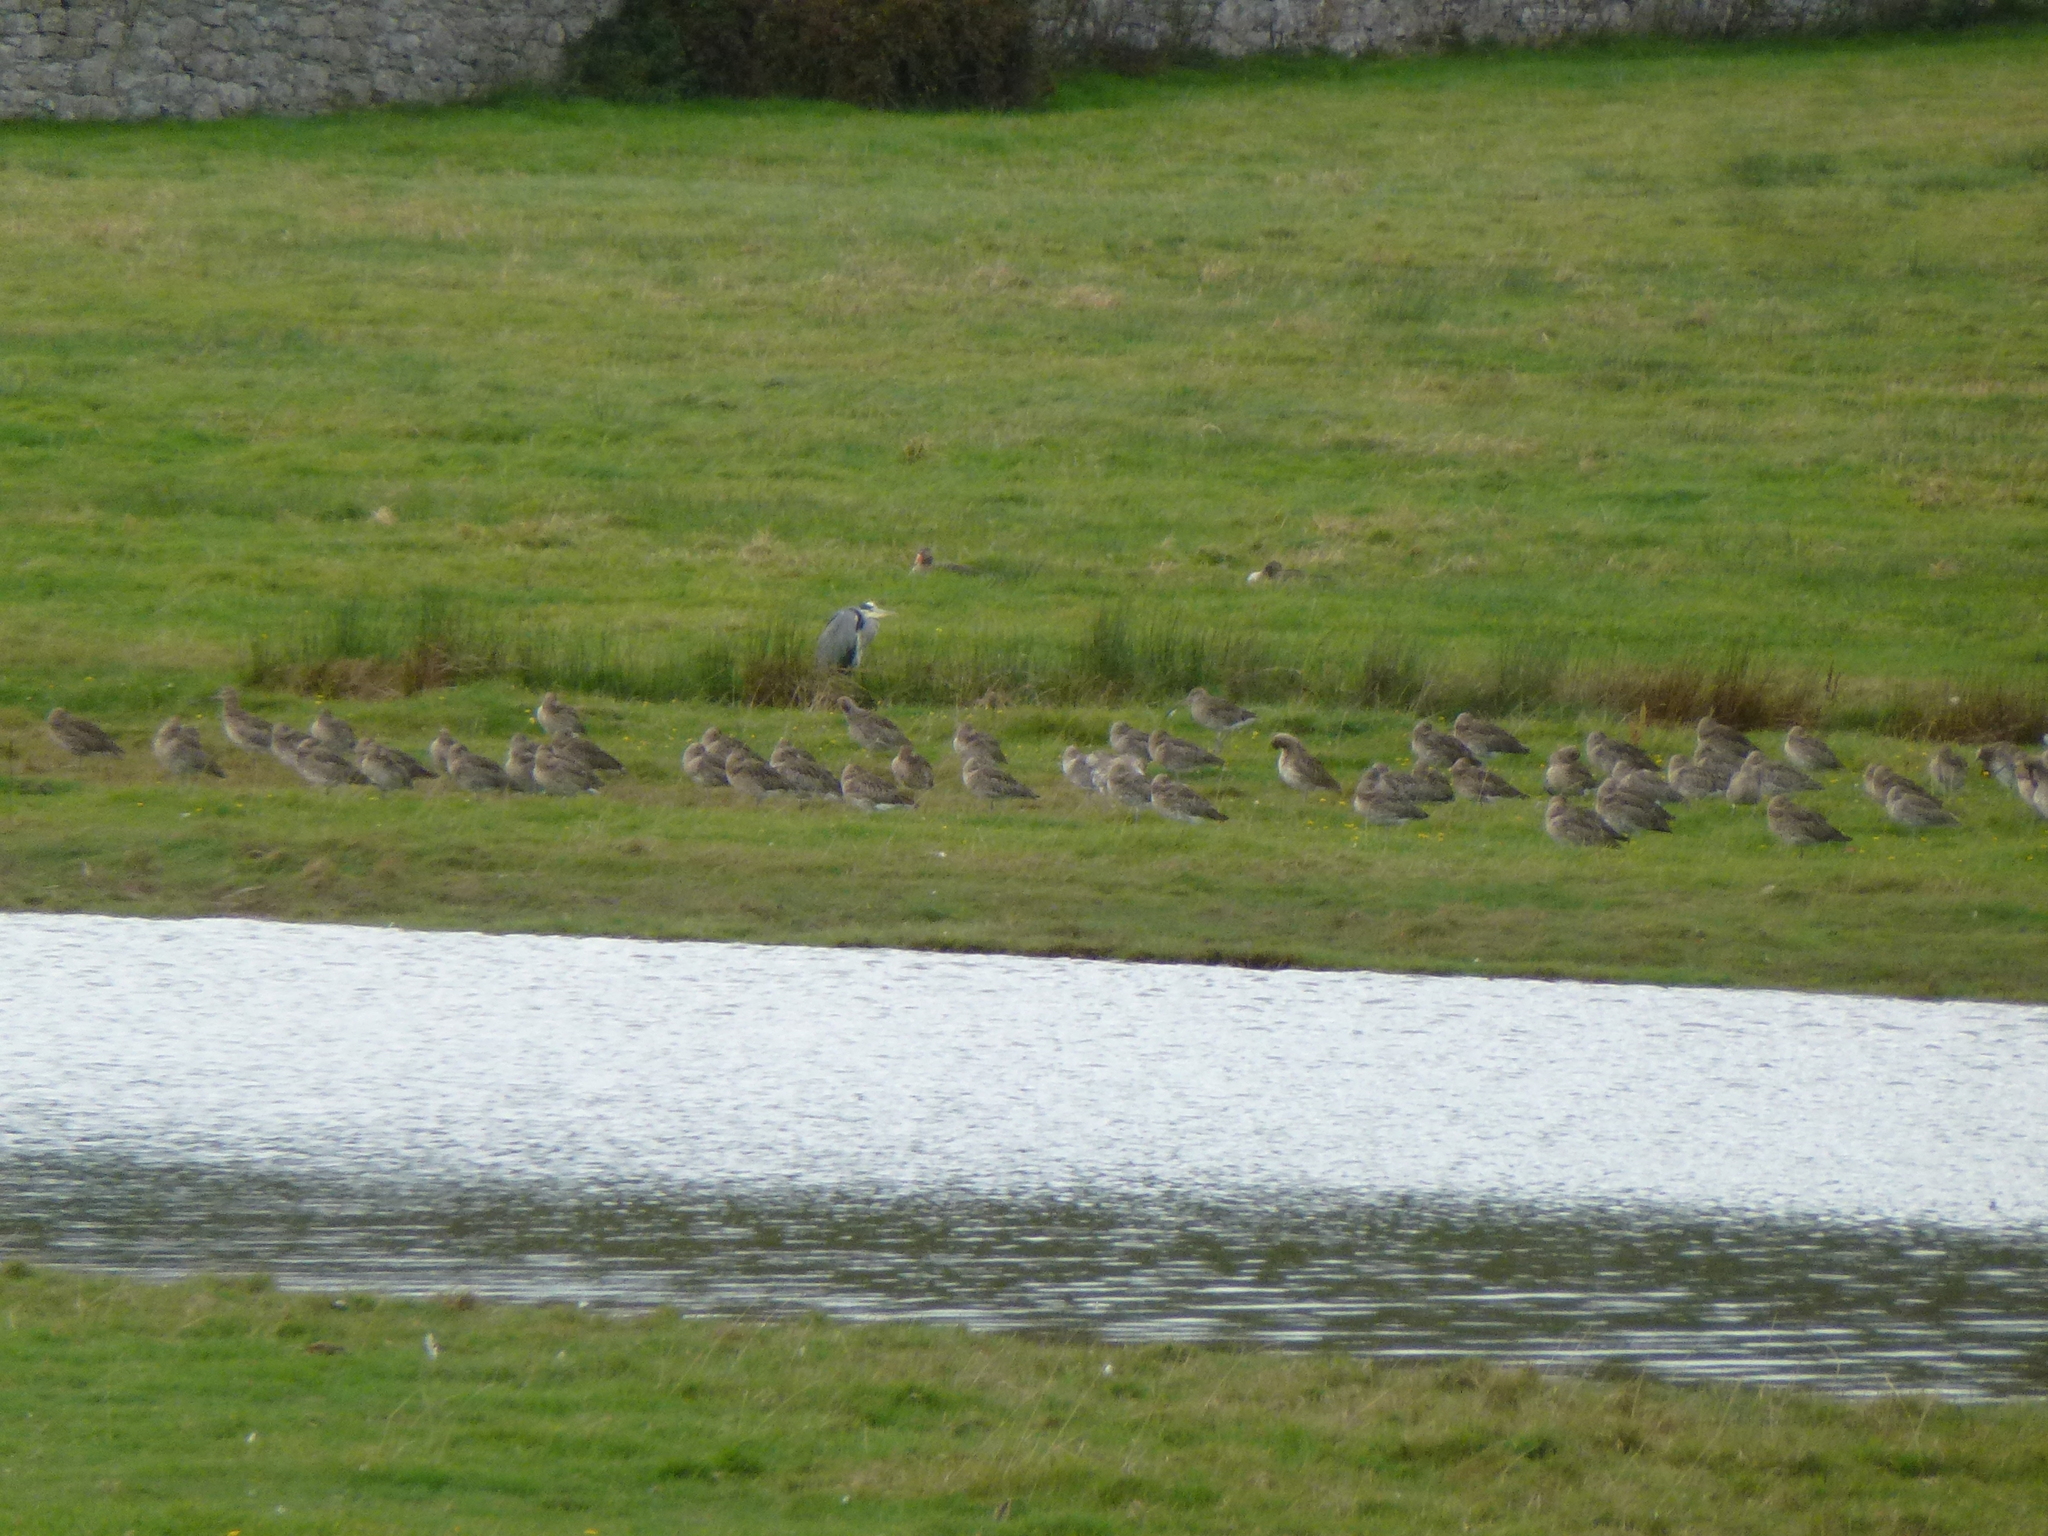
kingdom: Animalia
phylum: Chordata
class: Aves
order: Pelecaniformes
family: Ardeidae
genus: Ardea
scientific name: Ardea cinerea
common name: Grey heron
